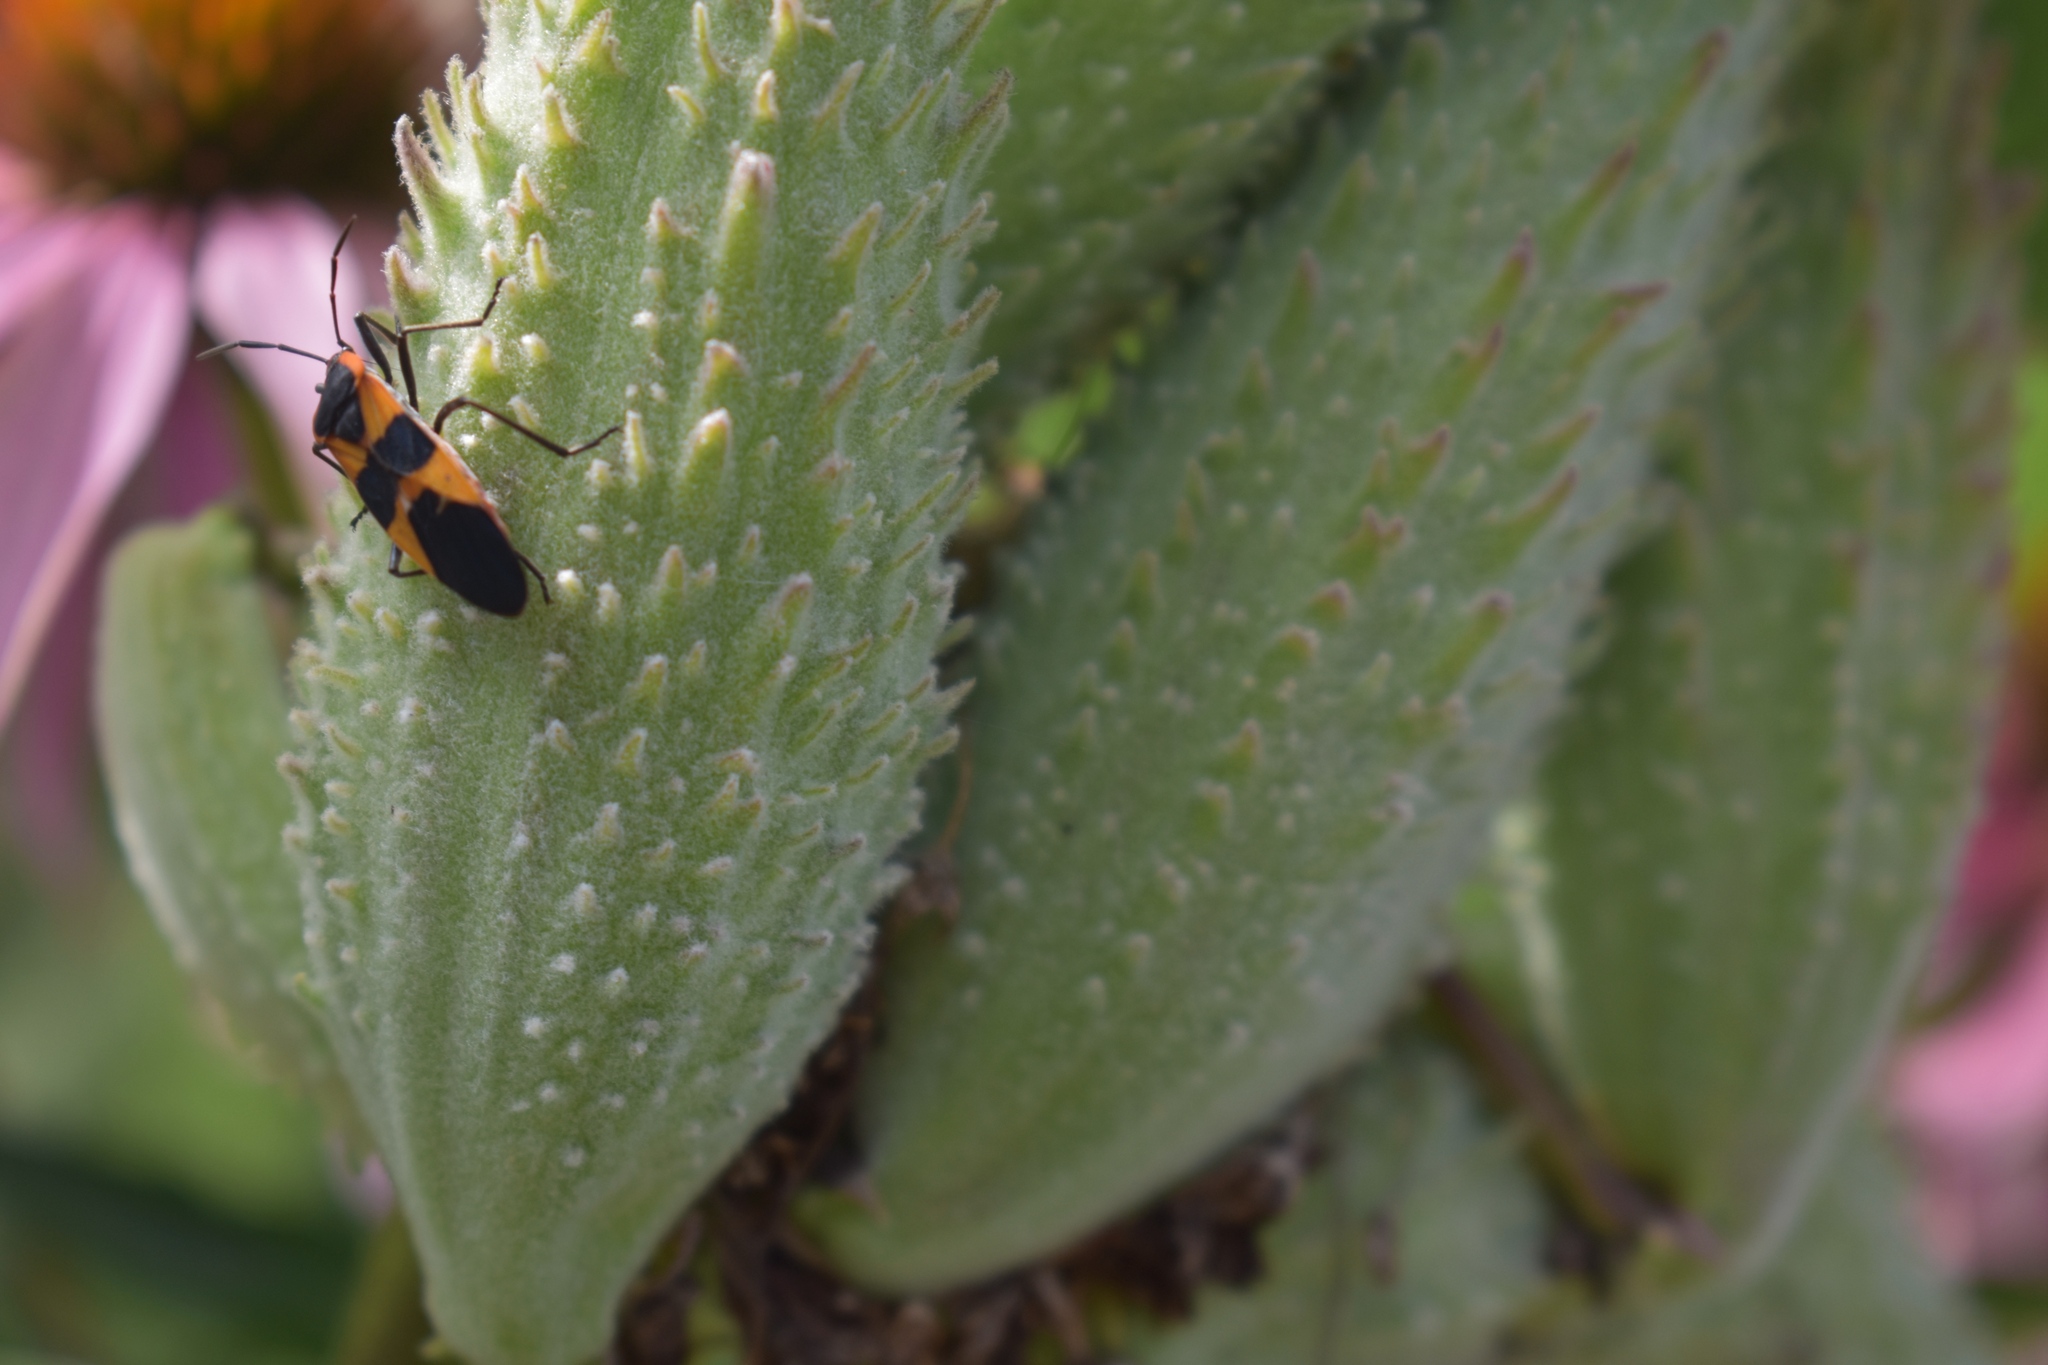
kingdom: Animalia
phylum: Arthropoda
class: Insecta
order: Hemiptera
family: Lygaeidae
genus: Oncopeltus
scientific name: Oncopeltus fasciatus
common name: Large milkweed bug
